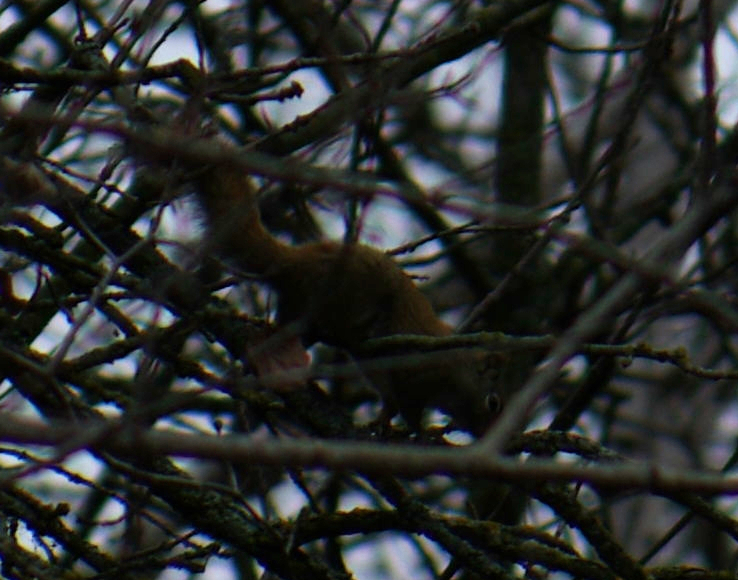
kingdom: Animalia
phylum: Chordata
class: Mammalia
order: Rodentia
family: Sciuridae
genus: Tamiasciurus
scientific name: Tamiasciurus hudsonicus
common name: Red squirrel
